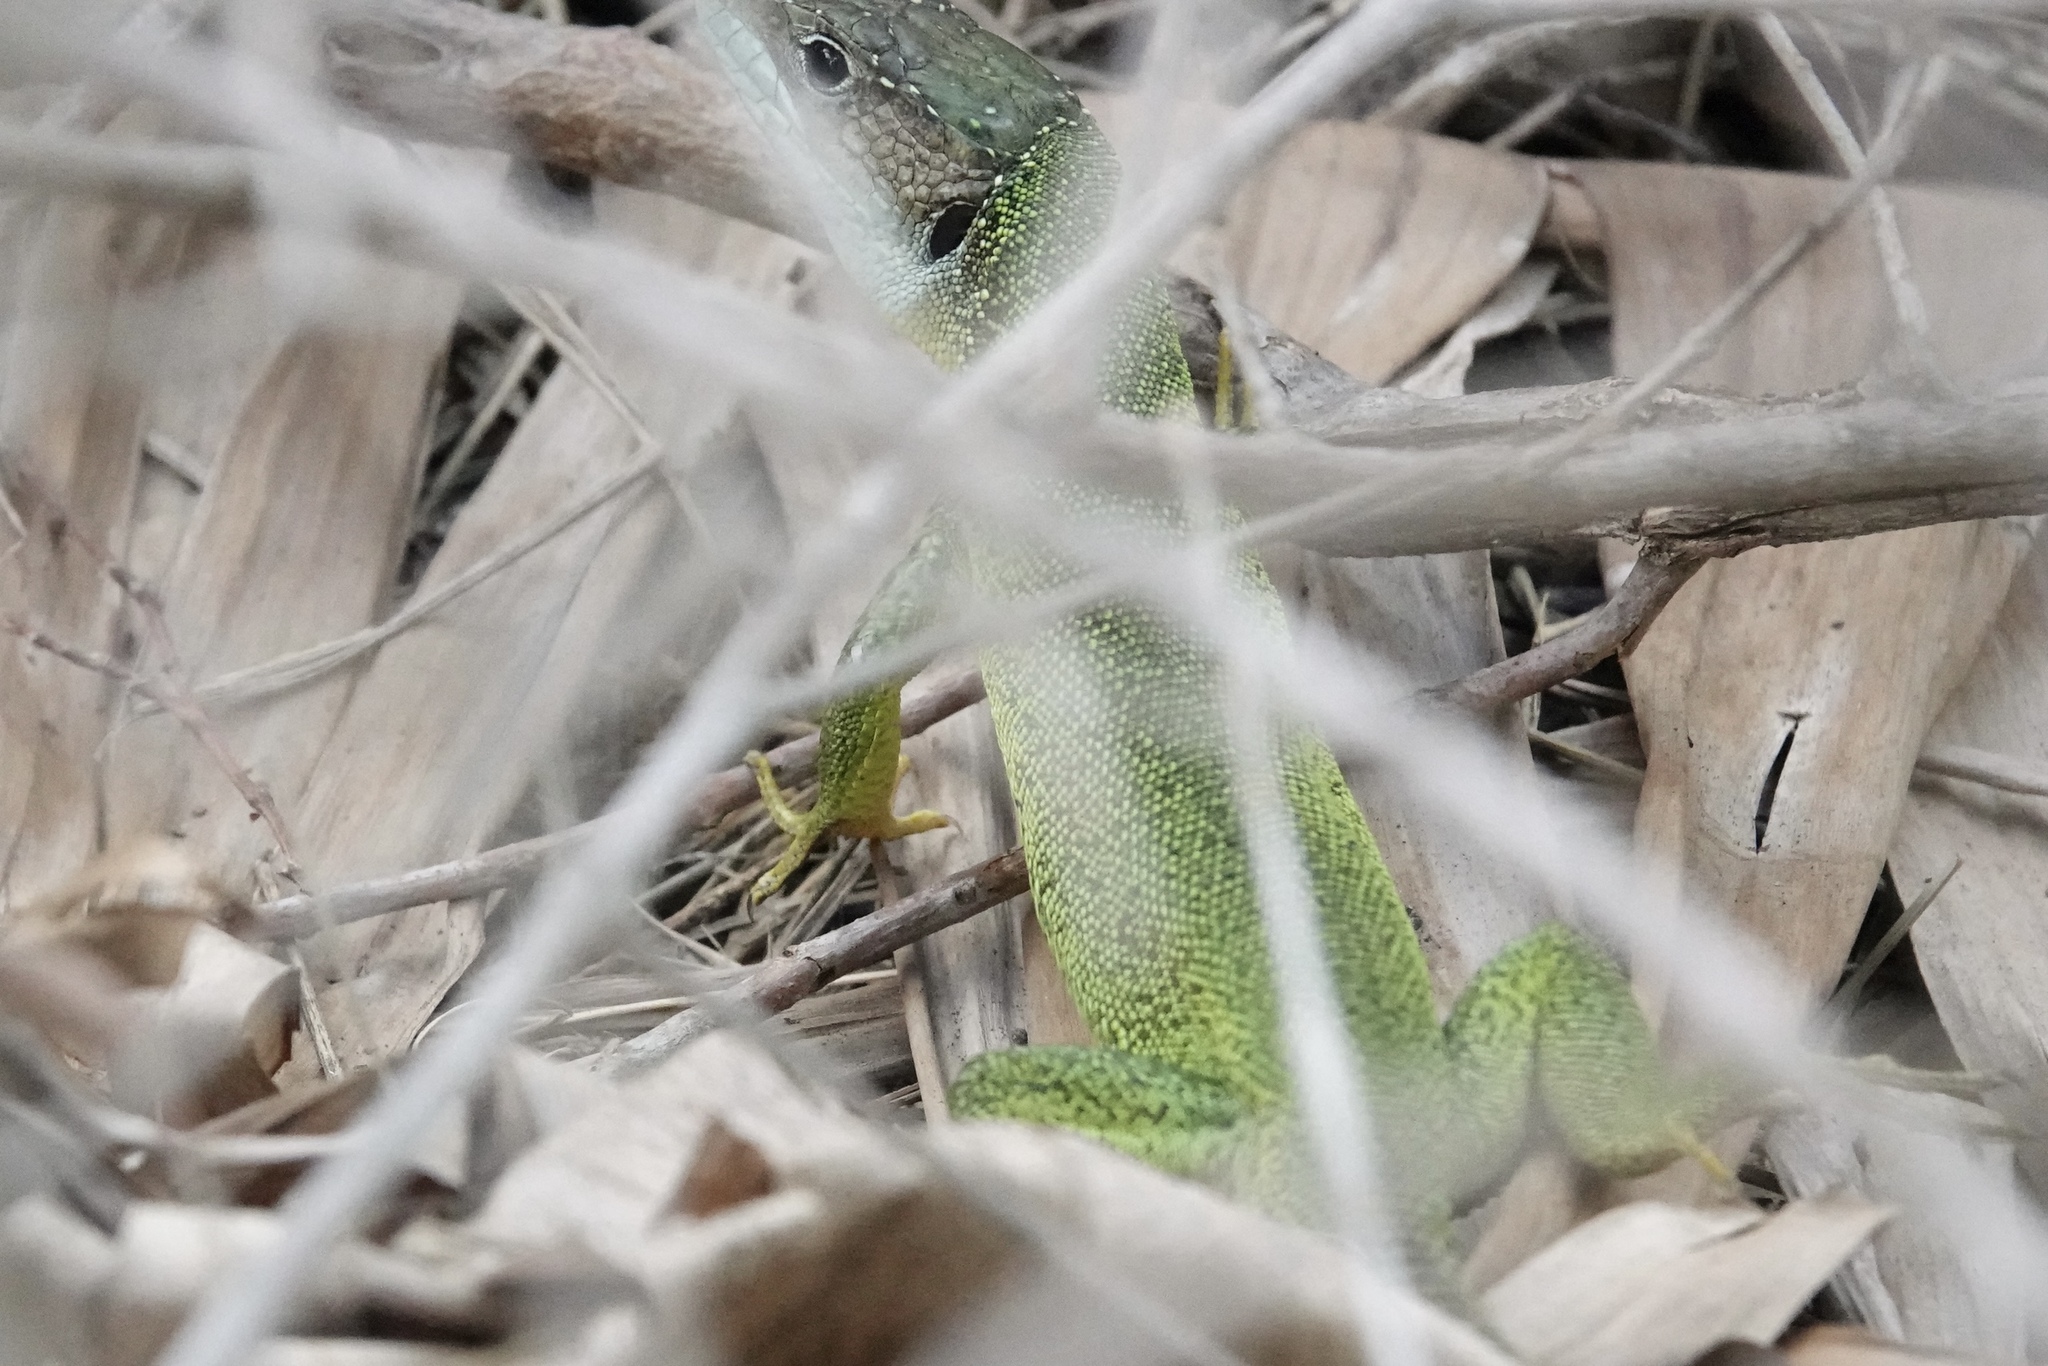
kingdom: Animalia
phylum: Chordata
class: Squamata
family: Lacertidae
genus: Lacerta
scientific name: Lacerta bilineata
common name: Western green lizard
